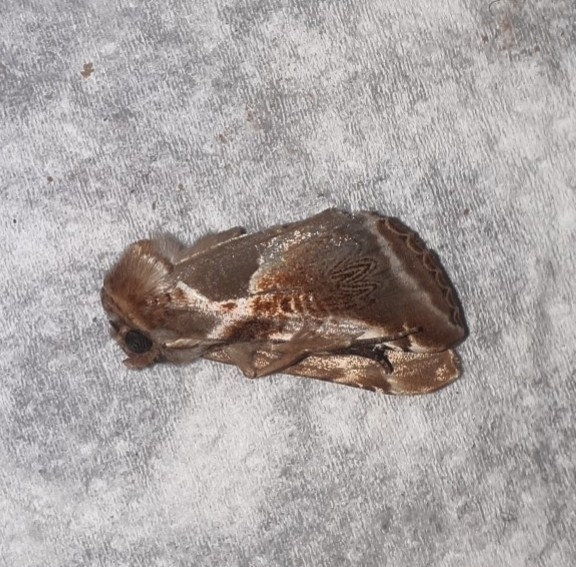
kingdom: Animalia
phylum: Arthropoda
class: Insecta
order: Lepidoptera
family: Drepanidae
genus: Habrosyne
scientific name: Habrosyne pyritoides
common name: Buff arches
